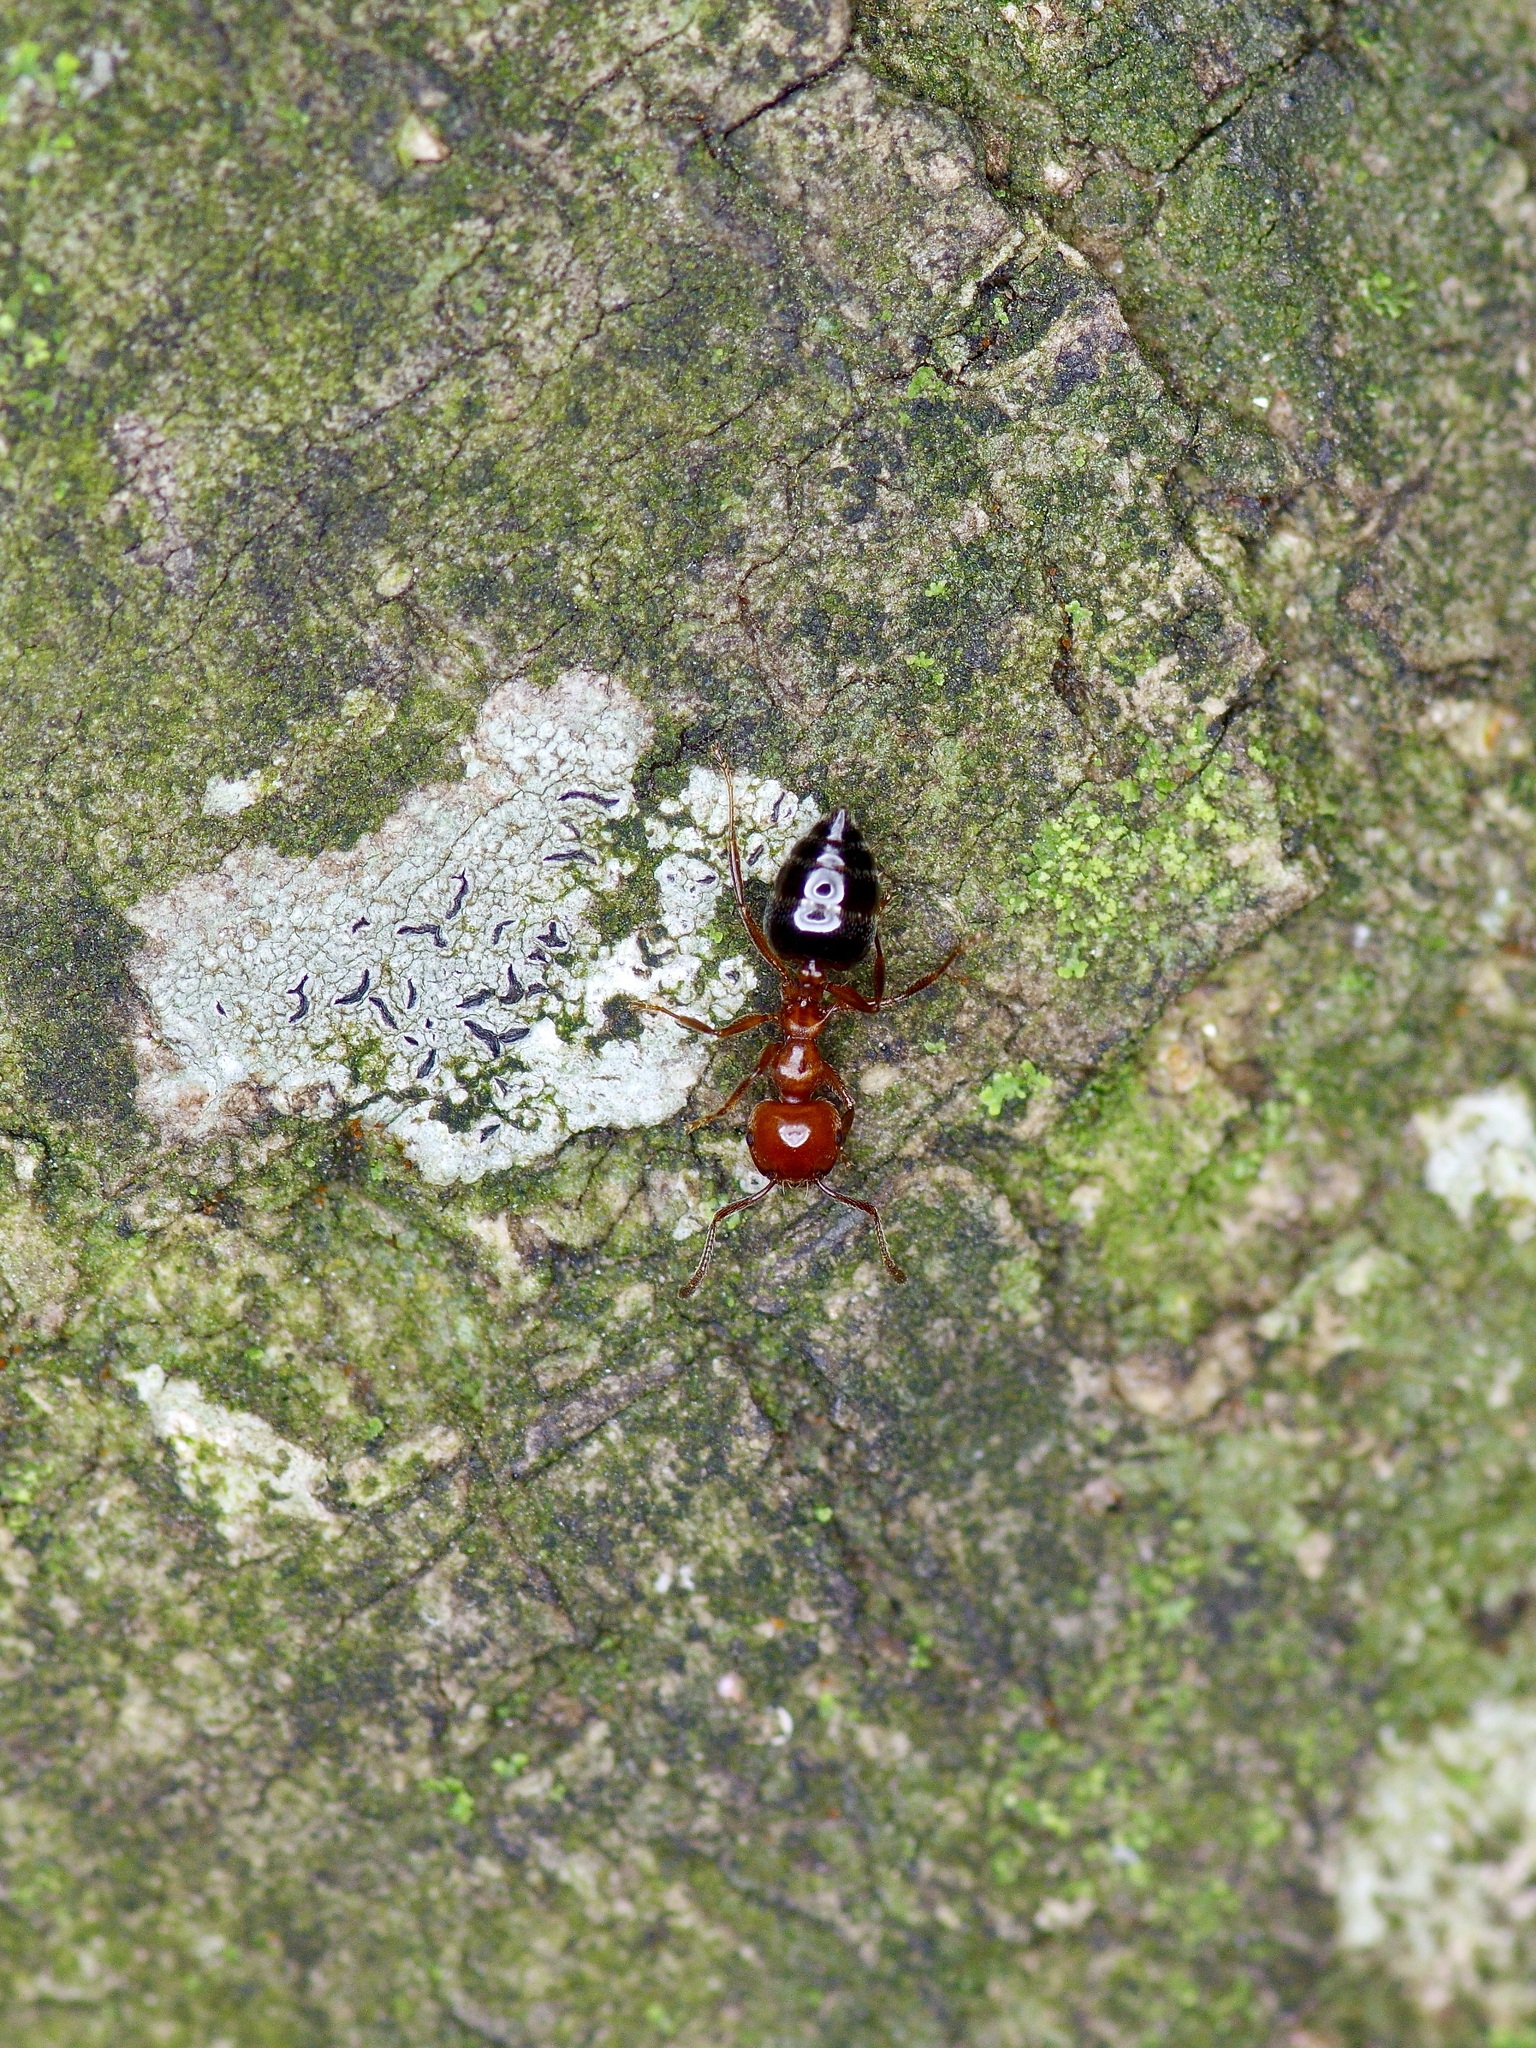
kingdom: Animalia
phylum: Arthropoda
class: Insecta
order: Hymenoptera
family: Formicidae
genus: Crematogaster
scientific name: Crematogaster laeviuscula
